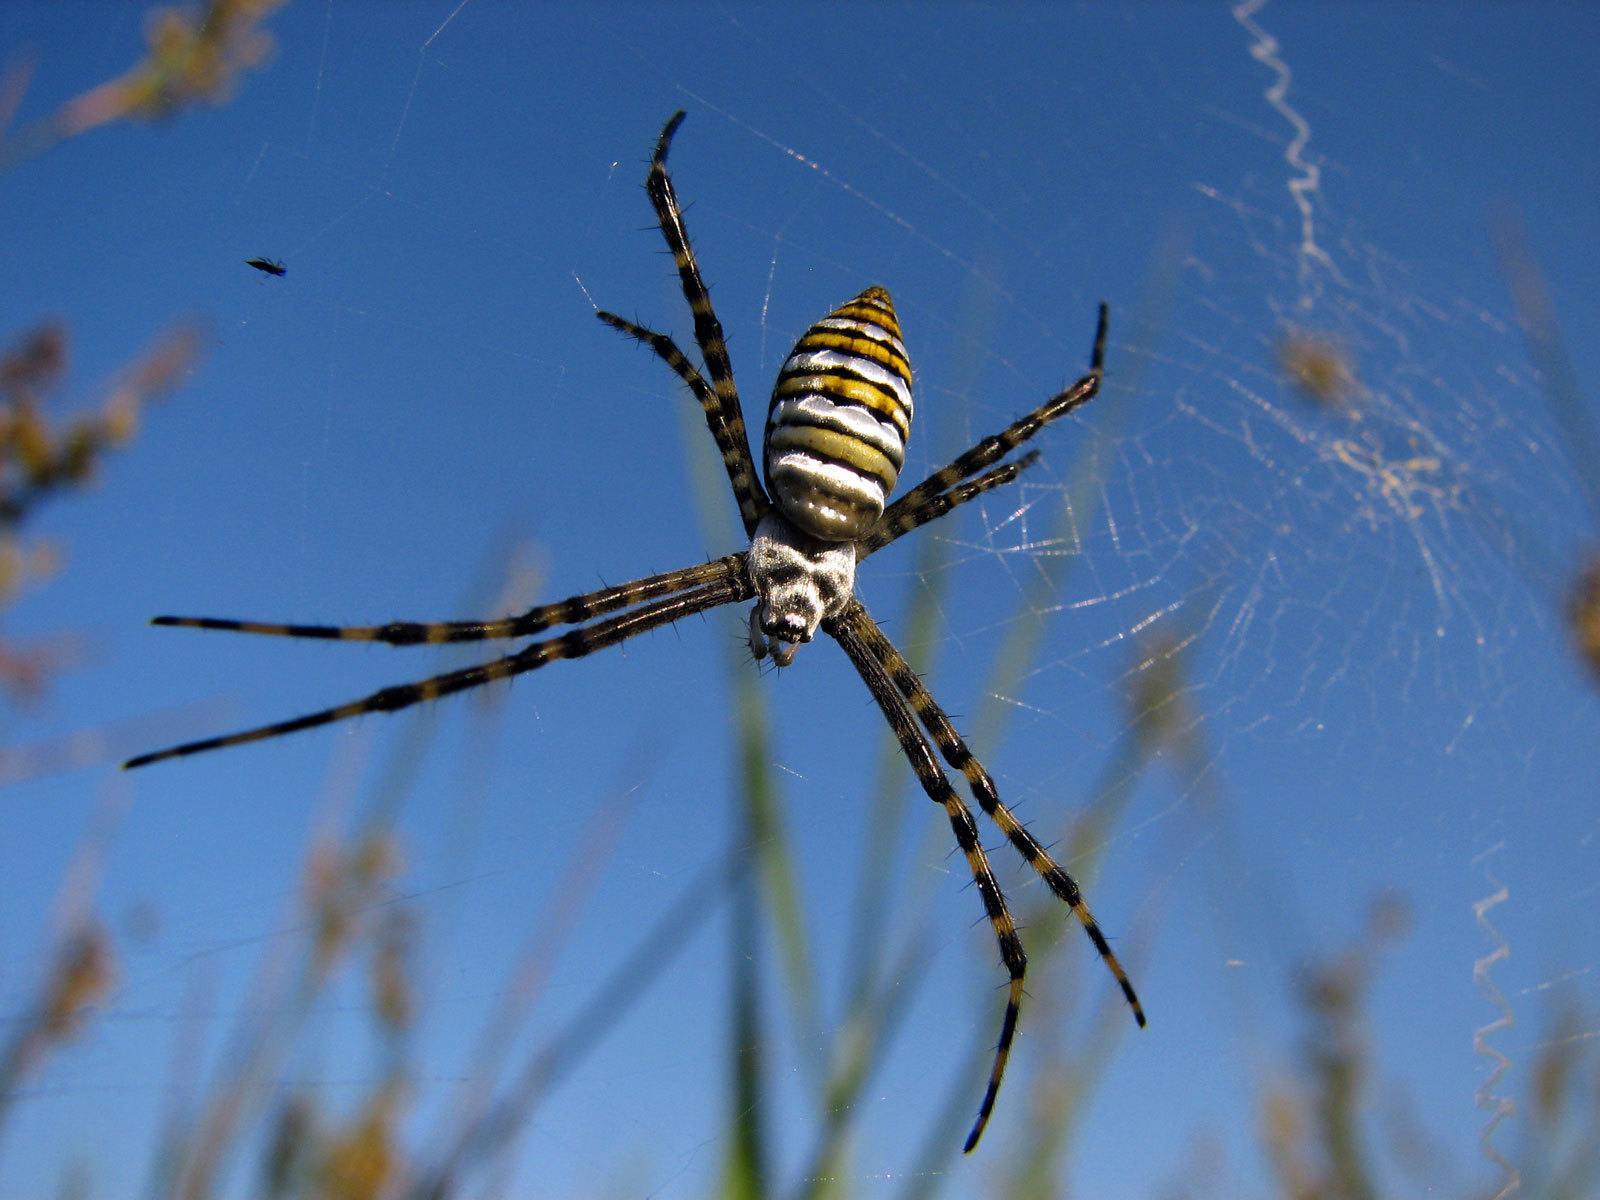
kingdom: Animalia
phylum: Arthropoda
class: Arachnida
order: Araneae
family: Araneidae
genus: Argiope
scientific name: Argiope trifasciata
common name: Banded garden spider
